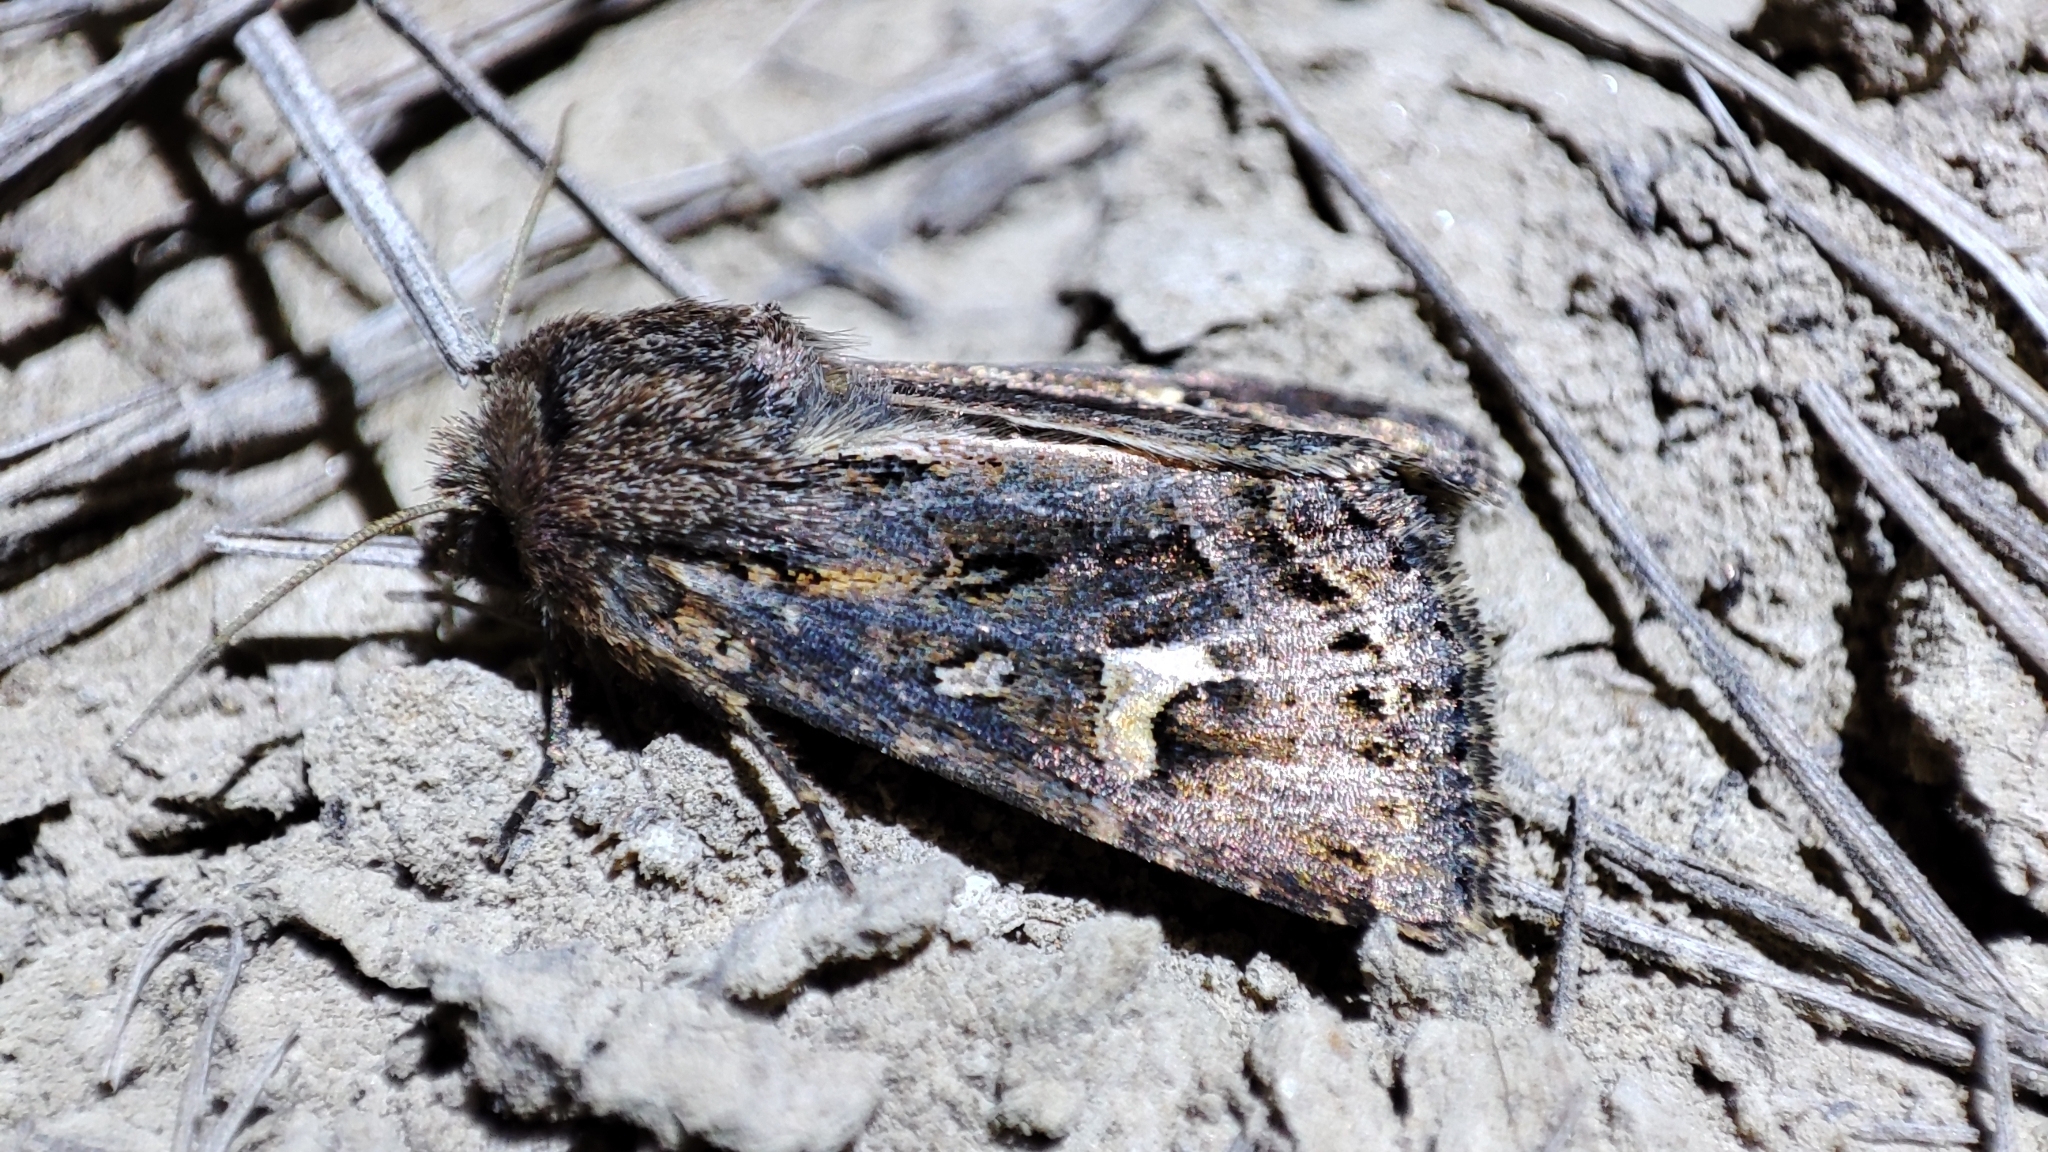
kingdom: Animalia
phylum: Arthropoda
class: Insecta
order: Lepidoptera
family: Noctuidae
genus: Celaena
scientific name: Celaena haworthii
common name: Haworth's minor
